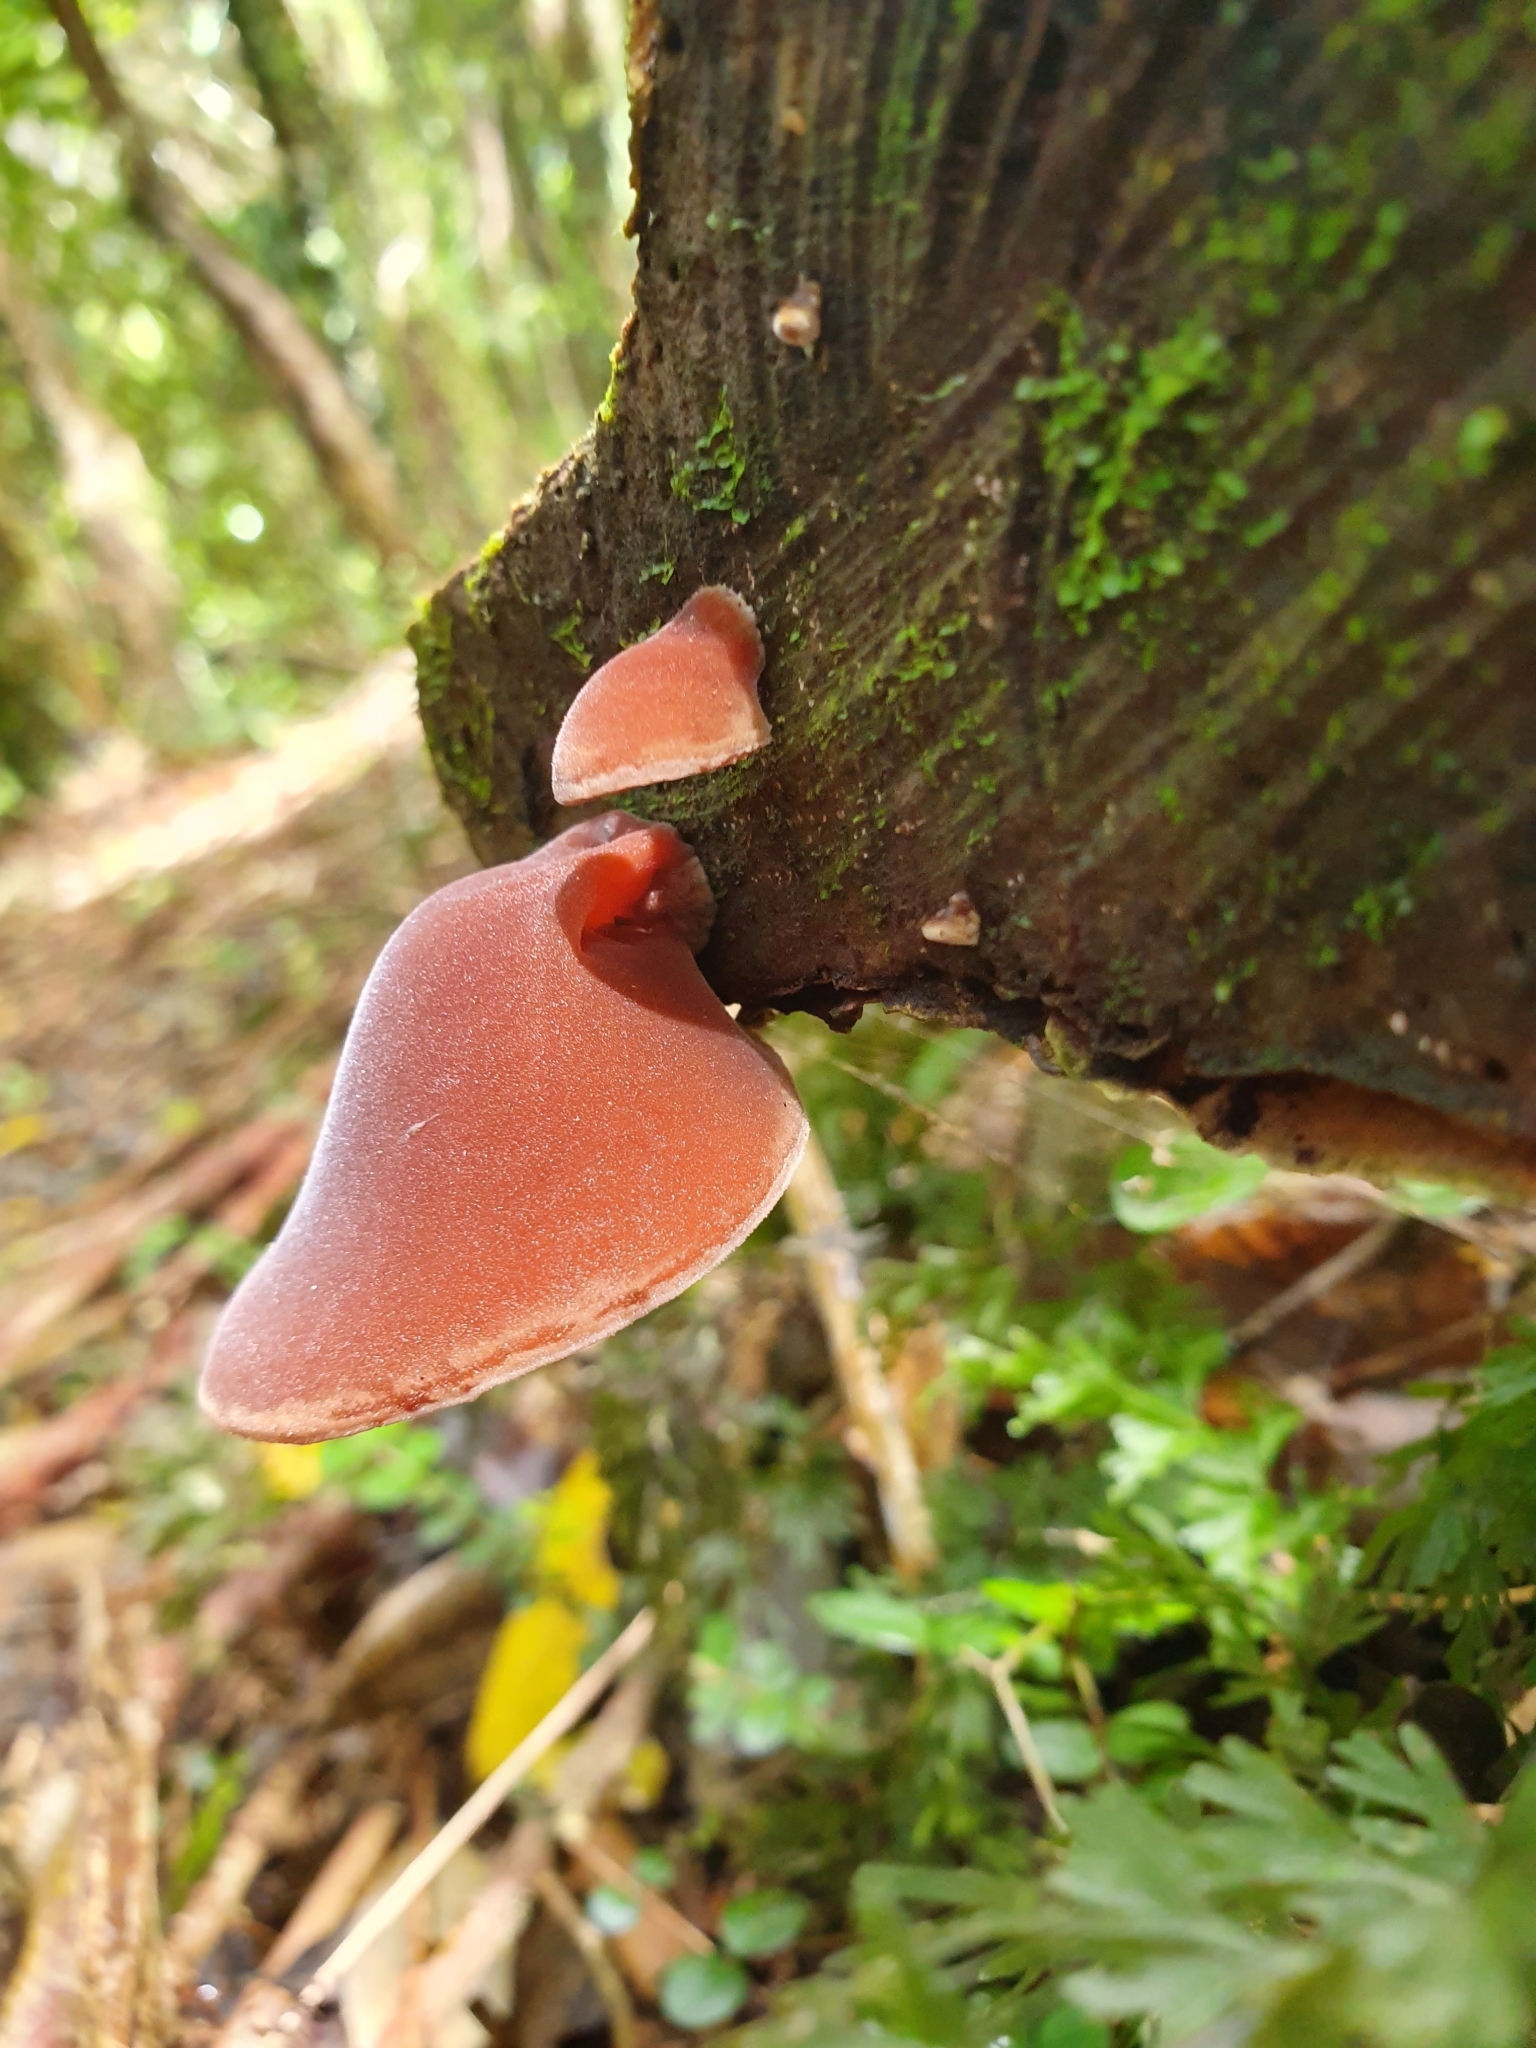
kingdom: Fungi
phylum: Basidiomycota
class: Agaricomycetes
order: Auriculariales
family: Auriculariaceae
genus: Auricularia
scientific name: Auricularia cornea
